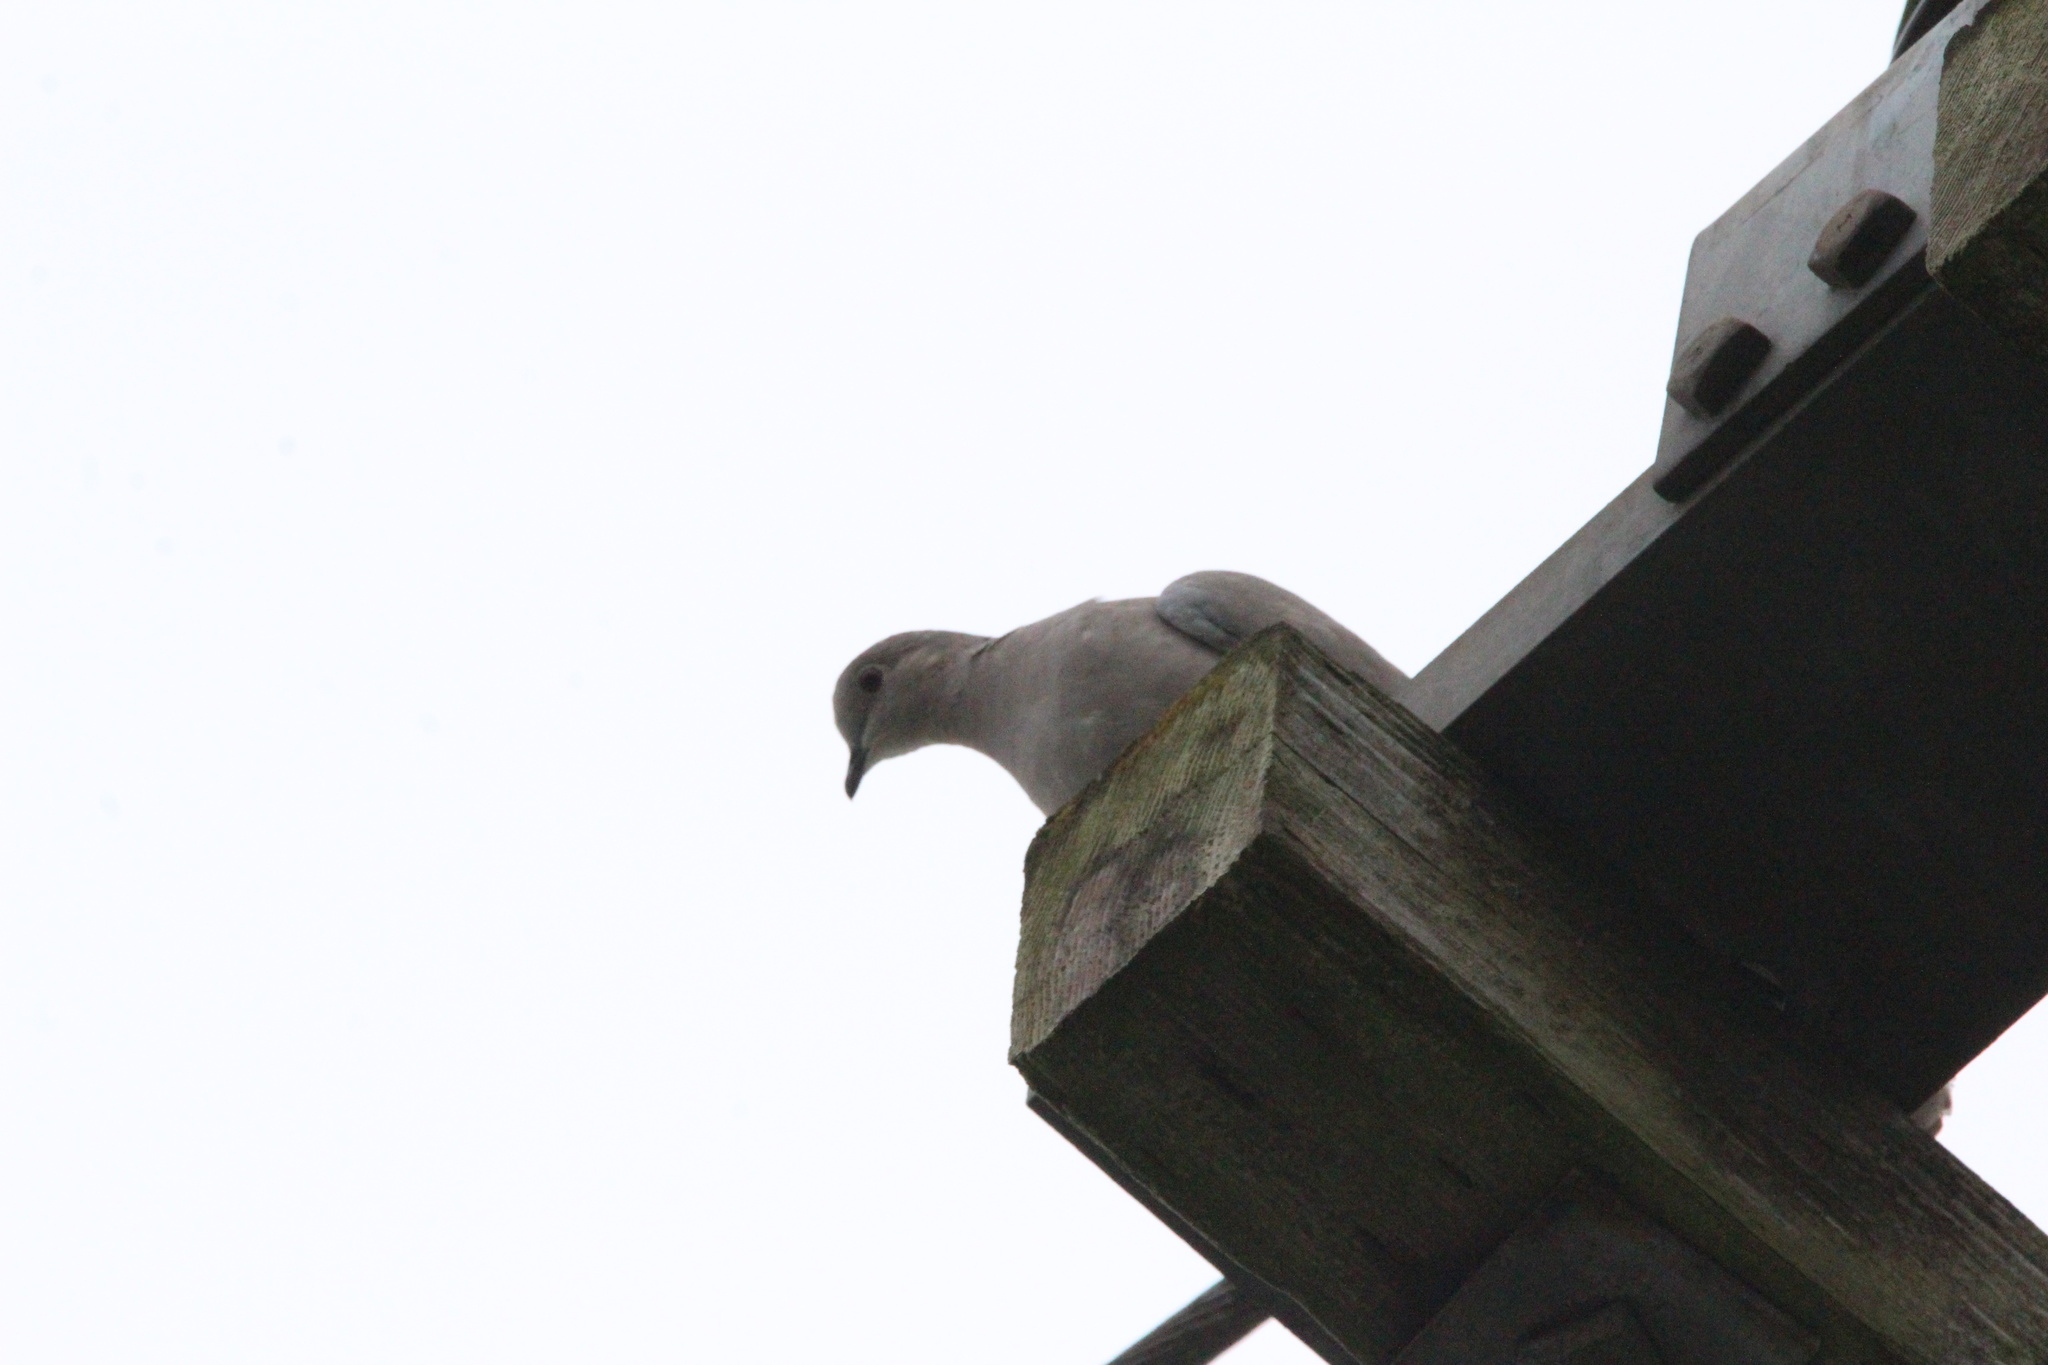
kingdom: Animalia
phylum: Chordata
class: Aves
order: Columbiformes
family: Columbidae
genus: Streptopelia
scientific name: Streptopelia decaocto
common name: Eurasian collared dove
